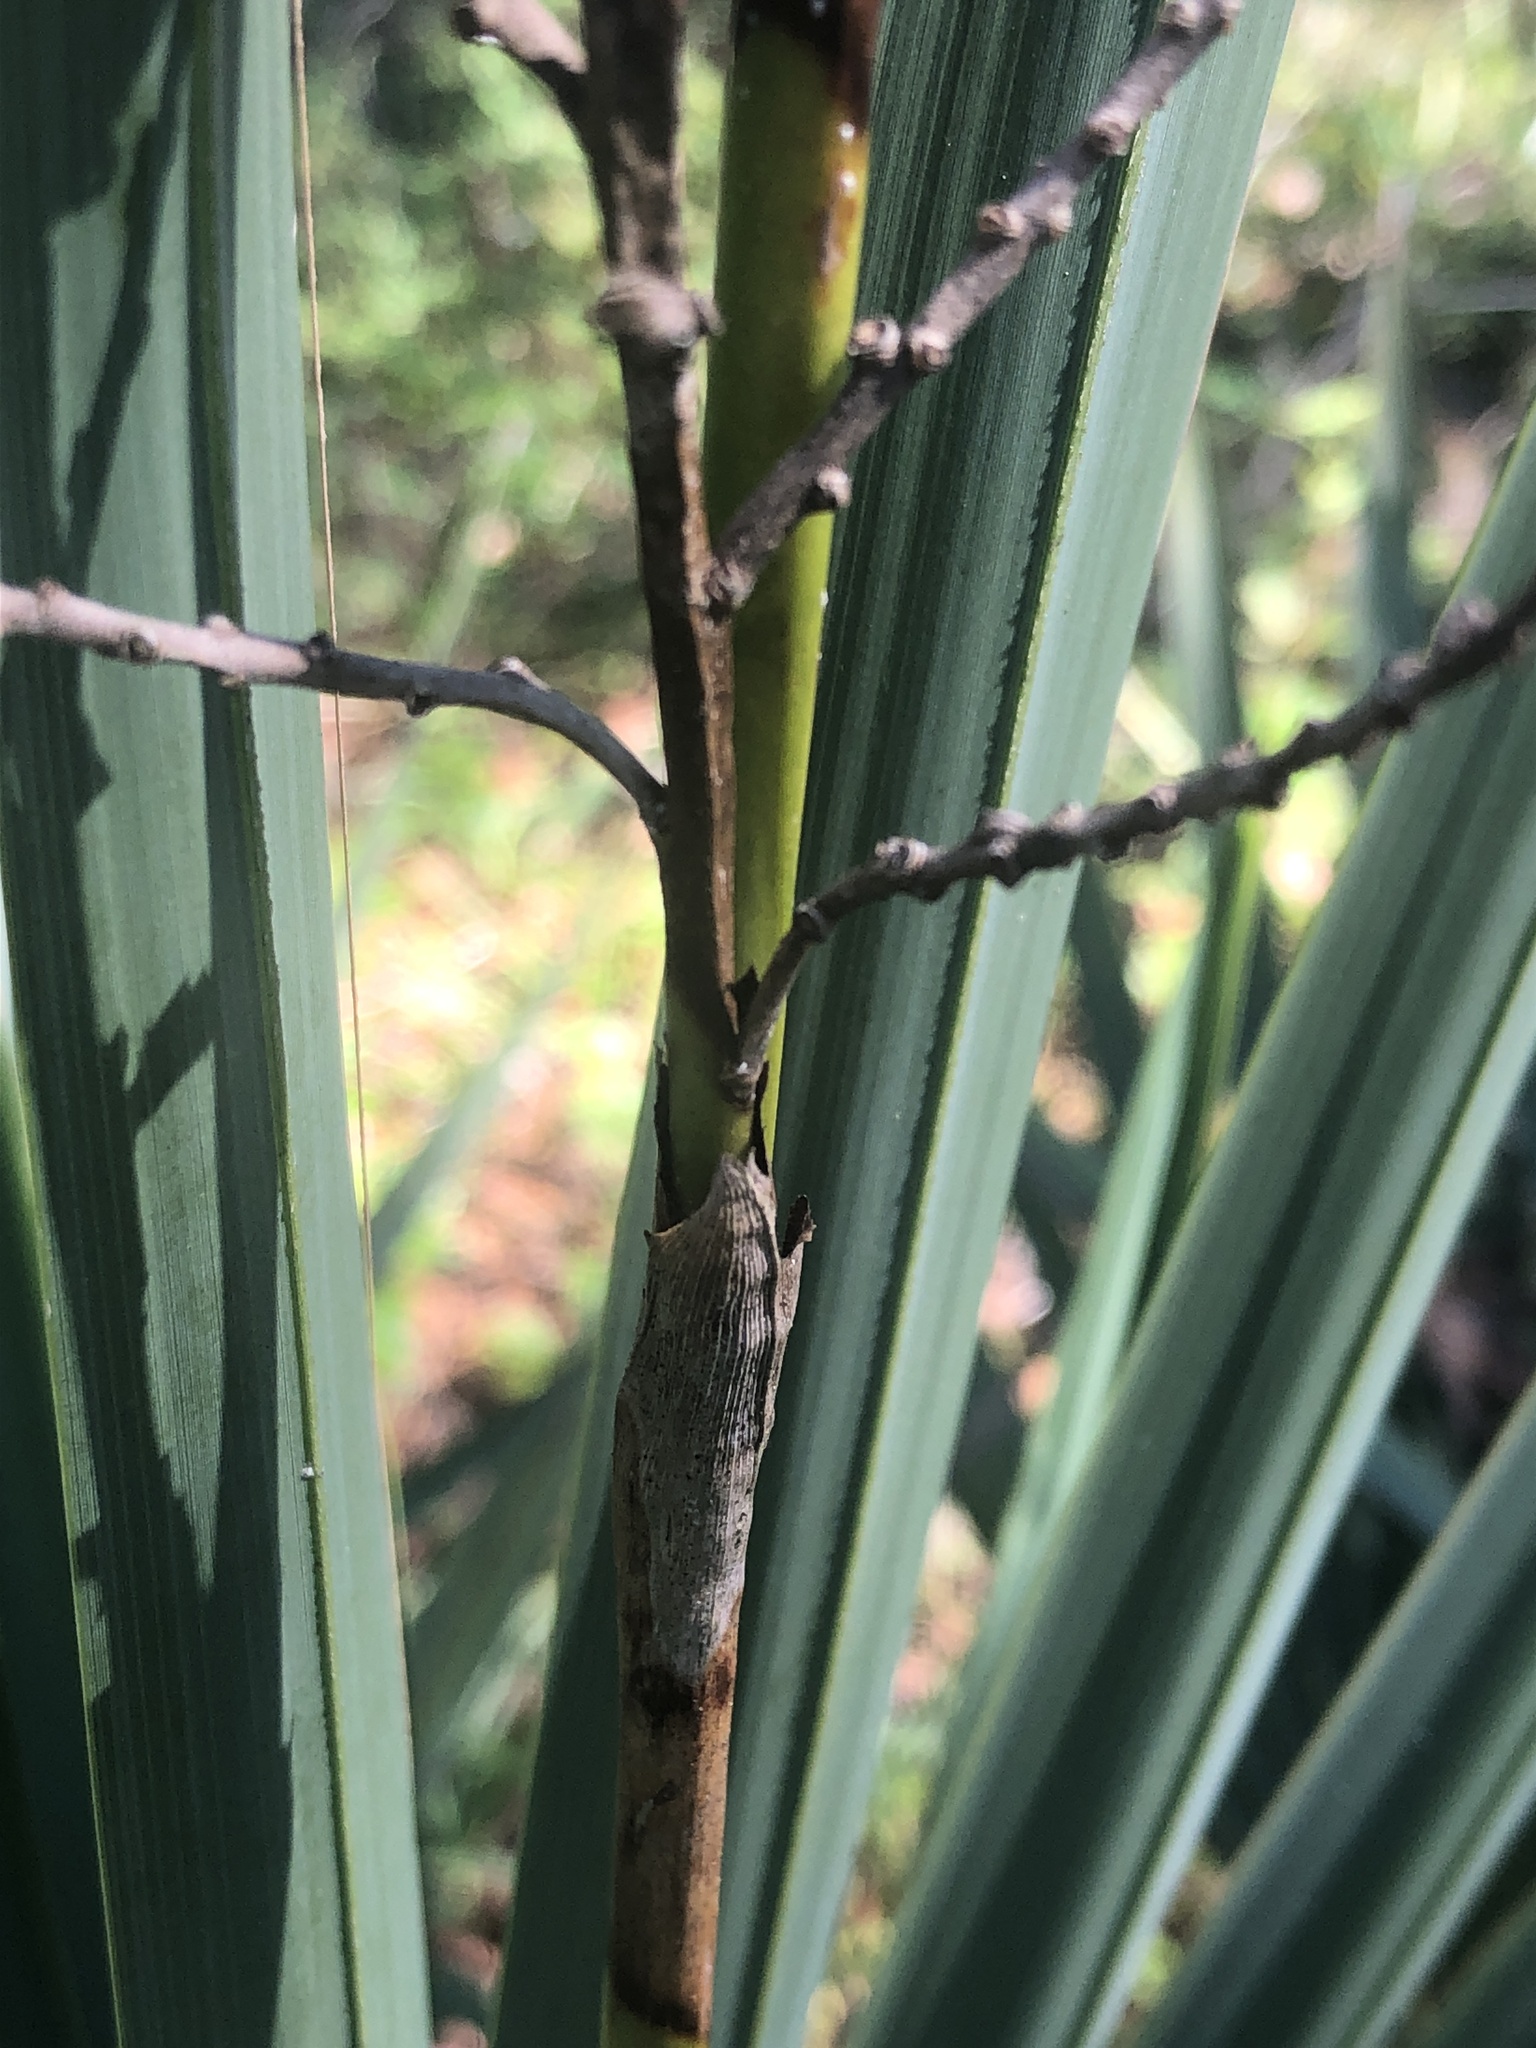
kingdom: Plantae
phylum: Tracheophyta
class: Liliopsida
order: Arecales
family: Arecaceae
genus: Sabal
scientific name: Sabal minor
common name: Dwarf palmetto
